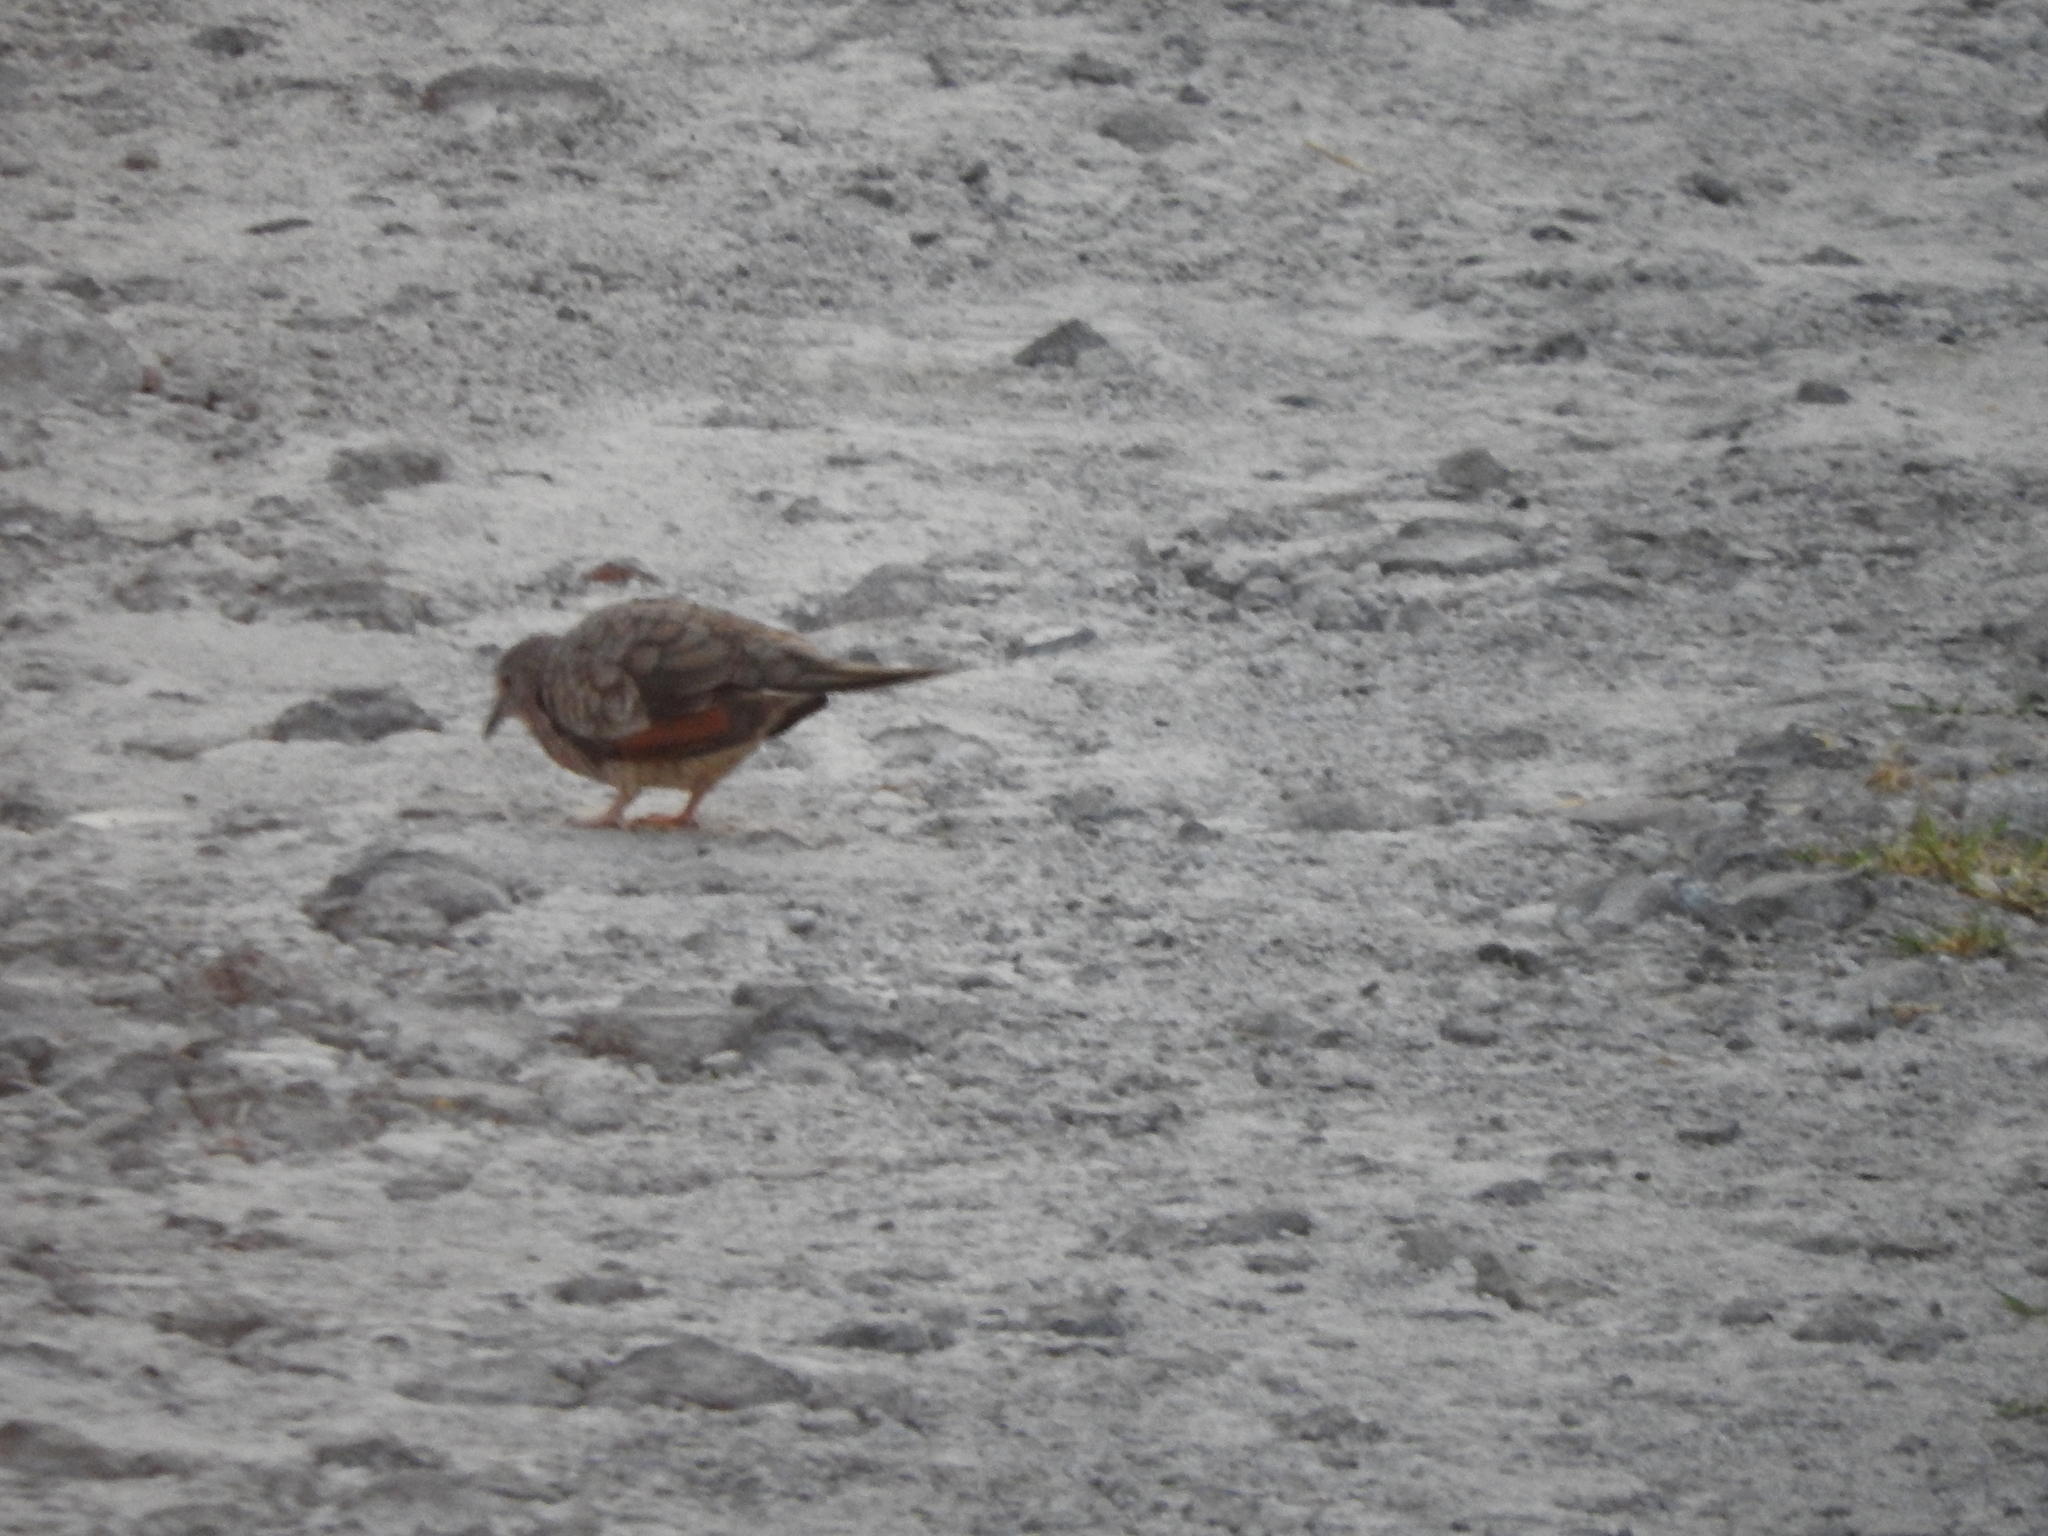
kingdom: Animalia
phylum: Chordata
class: Aves
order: Columbiformes
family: Columbidae
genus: Columbina
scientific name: Columbina inca
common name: Inca dove
